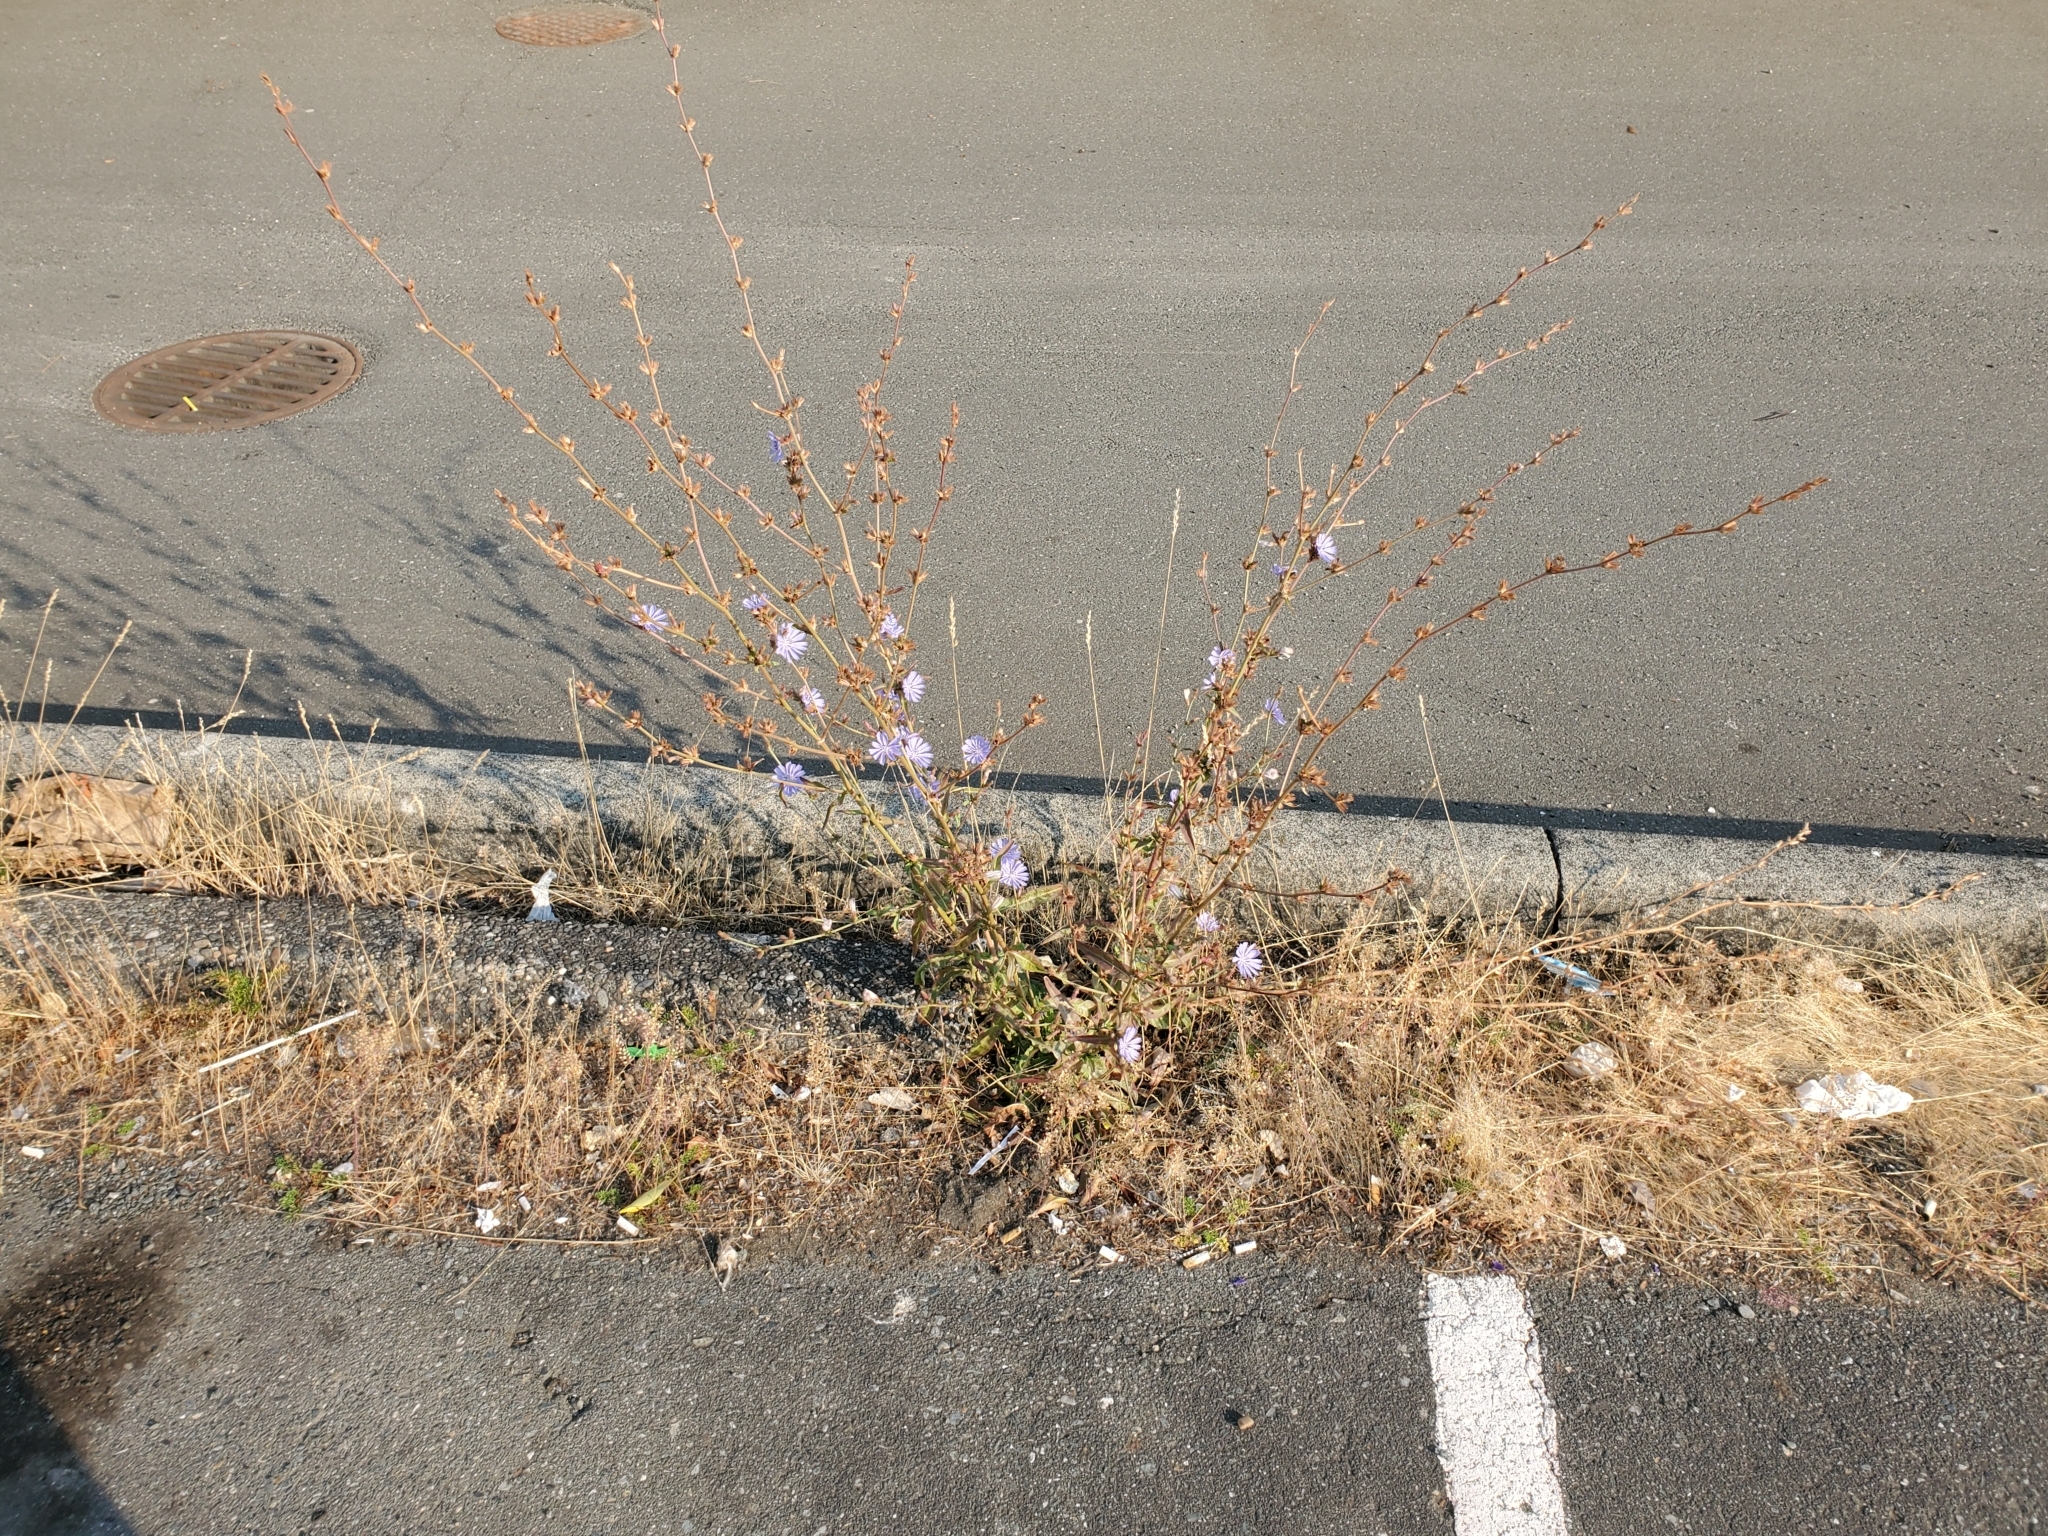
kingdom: Plantae
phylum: Tracheophyta
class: Magnoliopsida
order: Asterales
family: Asteraceae
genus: Cichorium
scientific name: Cichorium intybus
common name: Chicory
